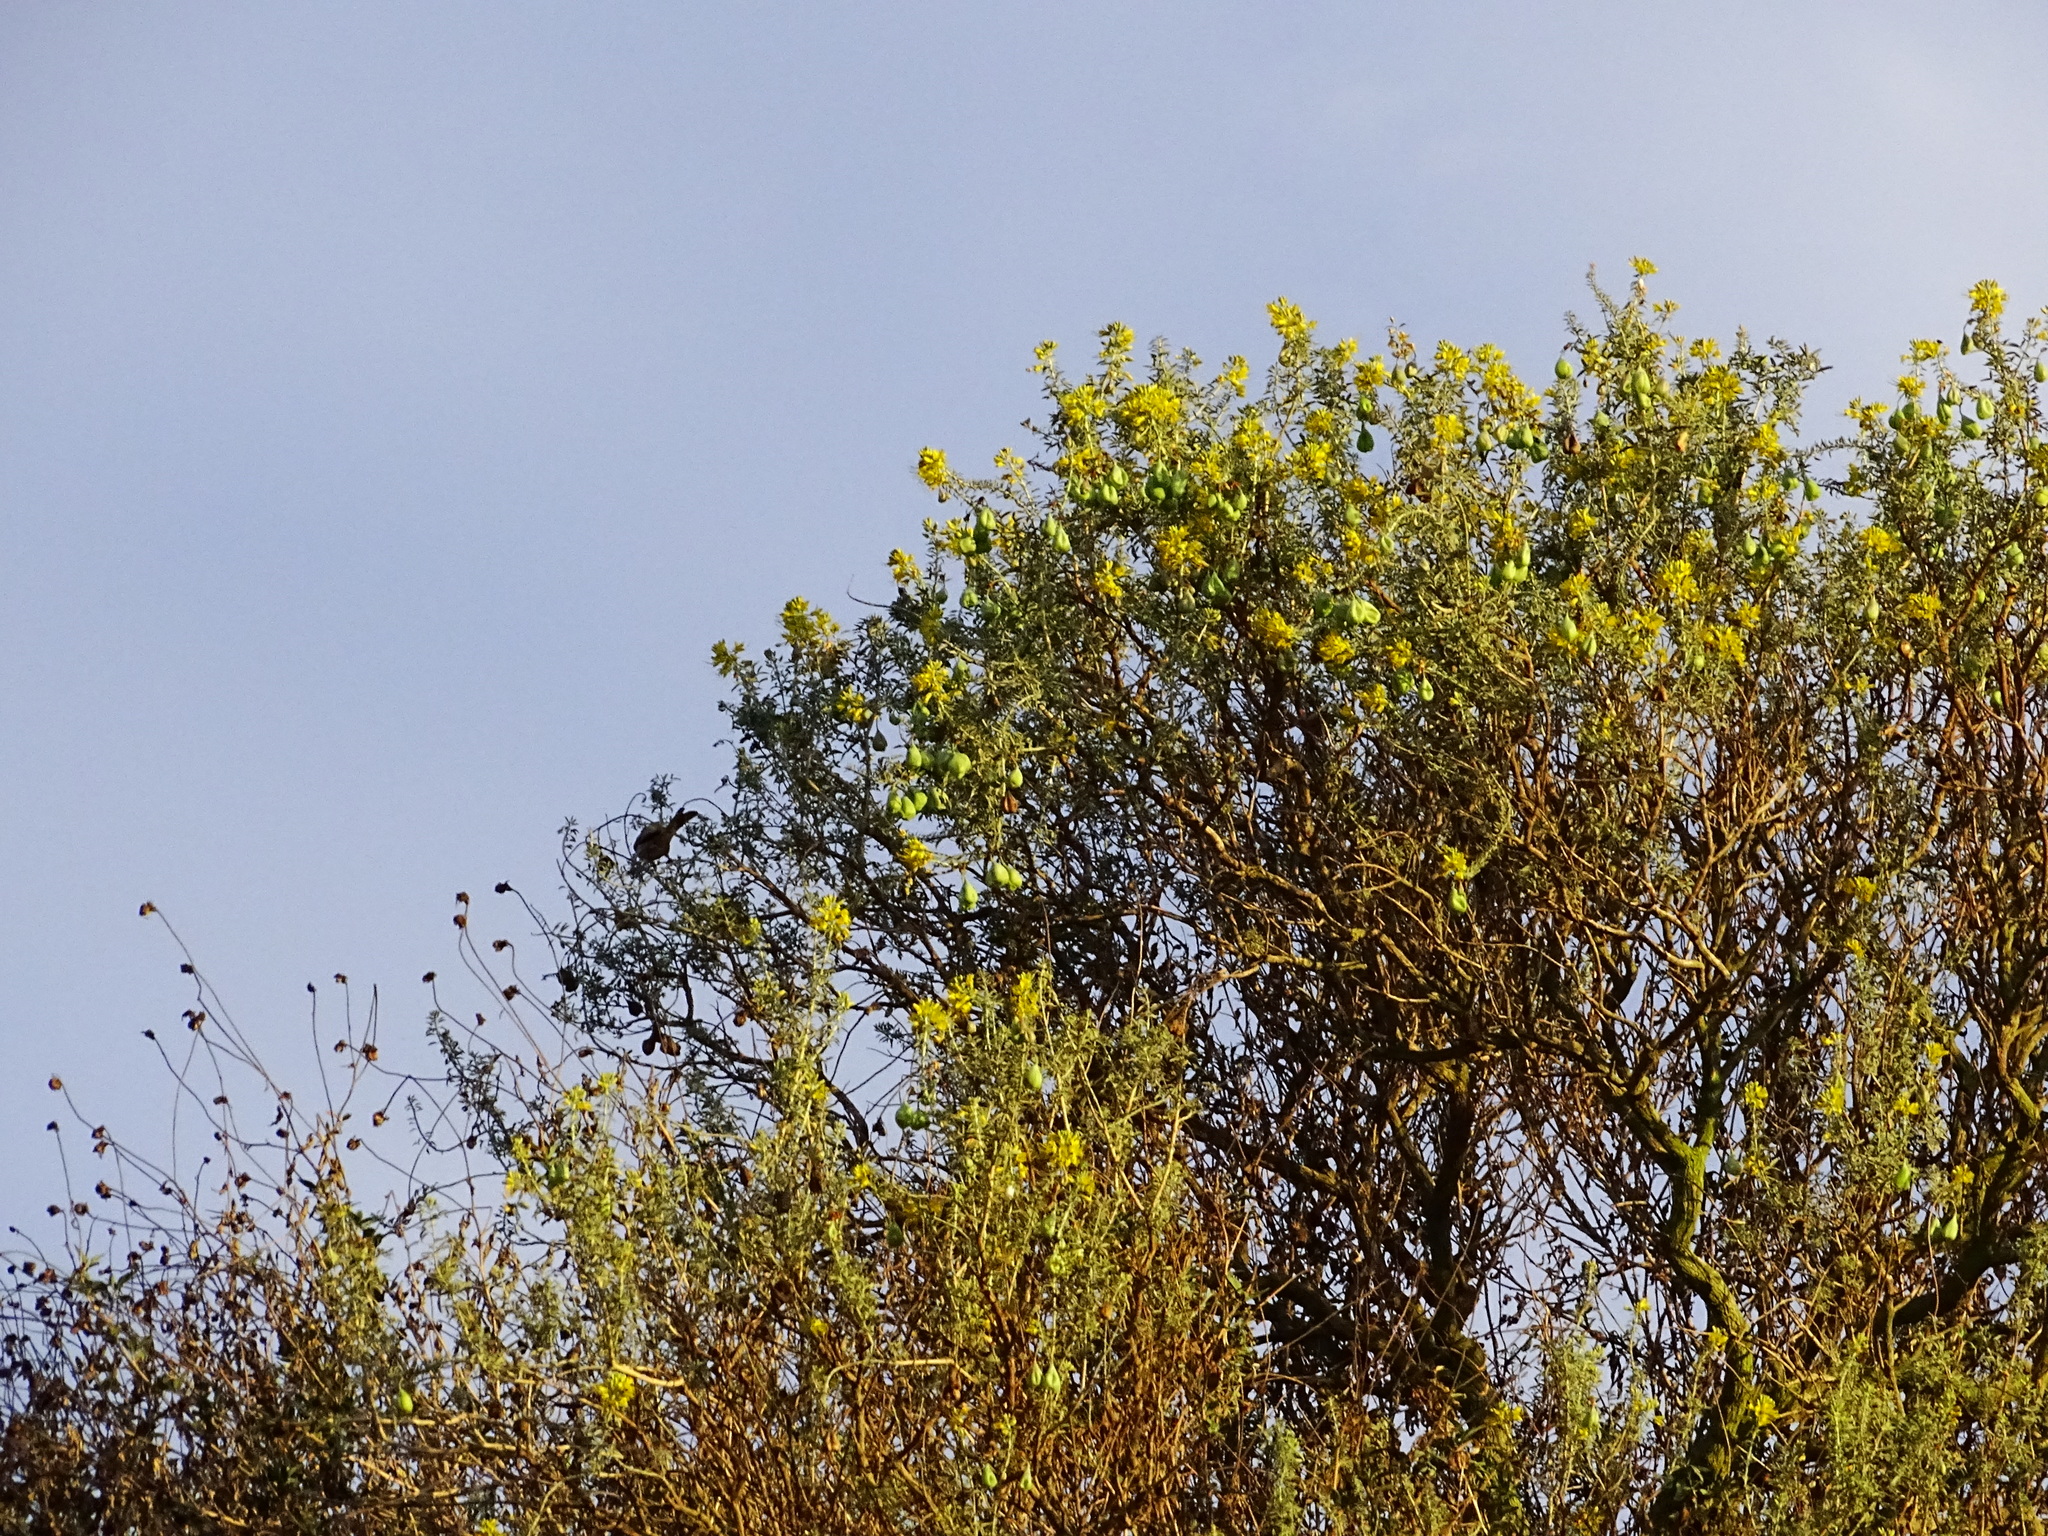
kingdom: Plantae
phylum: Tracheophyta
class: Magnoliopsida
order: Brassicales
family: Cleomaceae
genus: Cleomella
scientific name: Cleomella arborea
